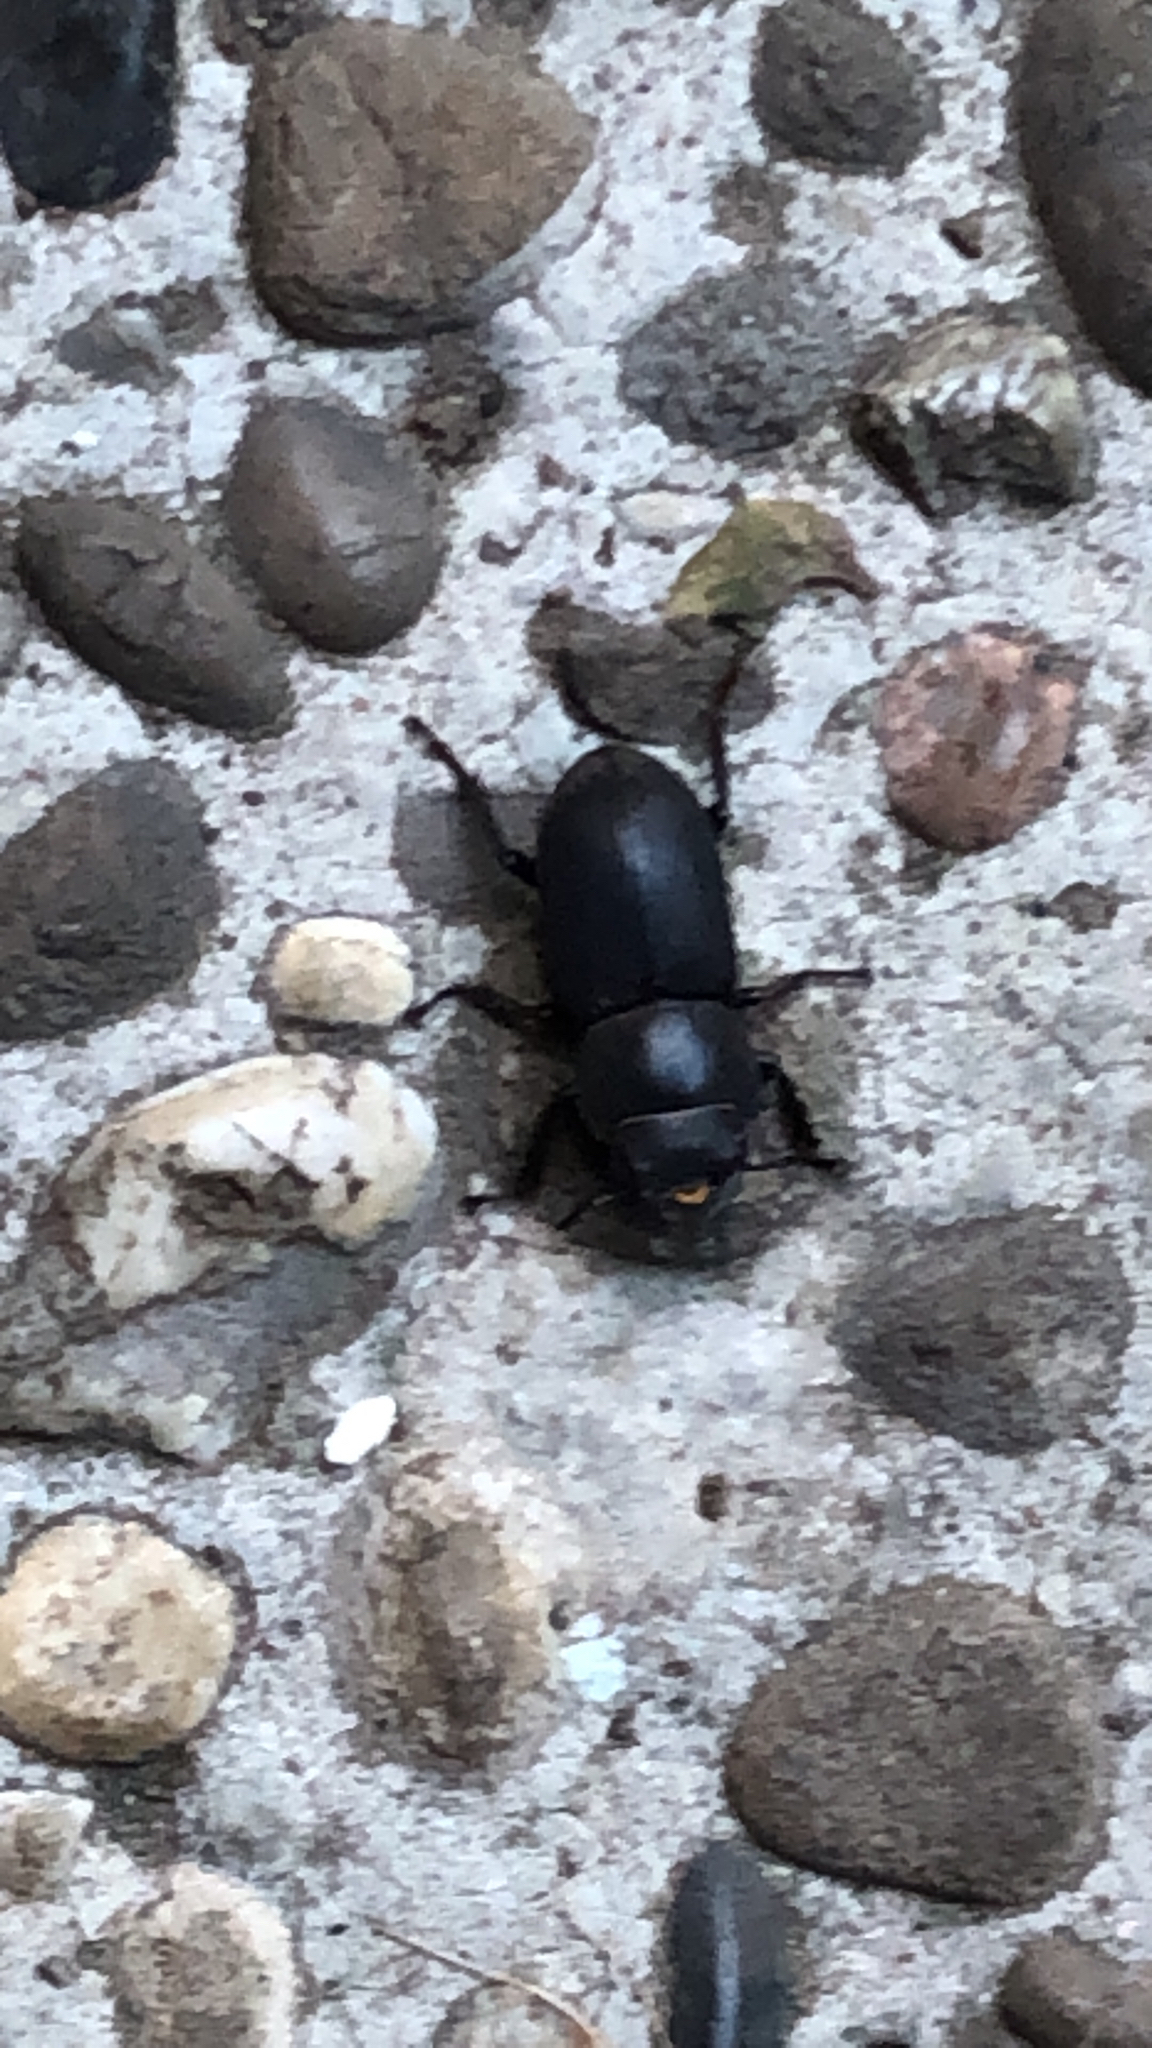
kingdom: Animalia
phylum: Arthropoda
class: Insecta
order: Coleoptera
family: Lucanidae
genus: Dorcus
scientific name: Dorcus parallelipipedus
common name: Lesser stag beetle
